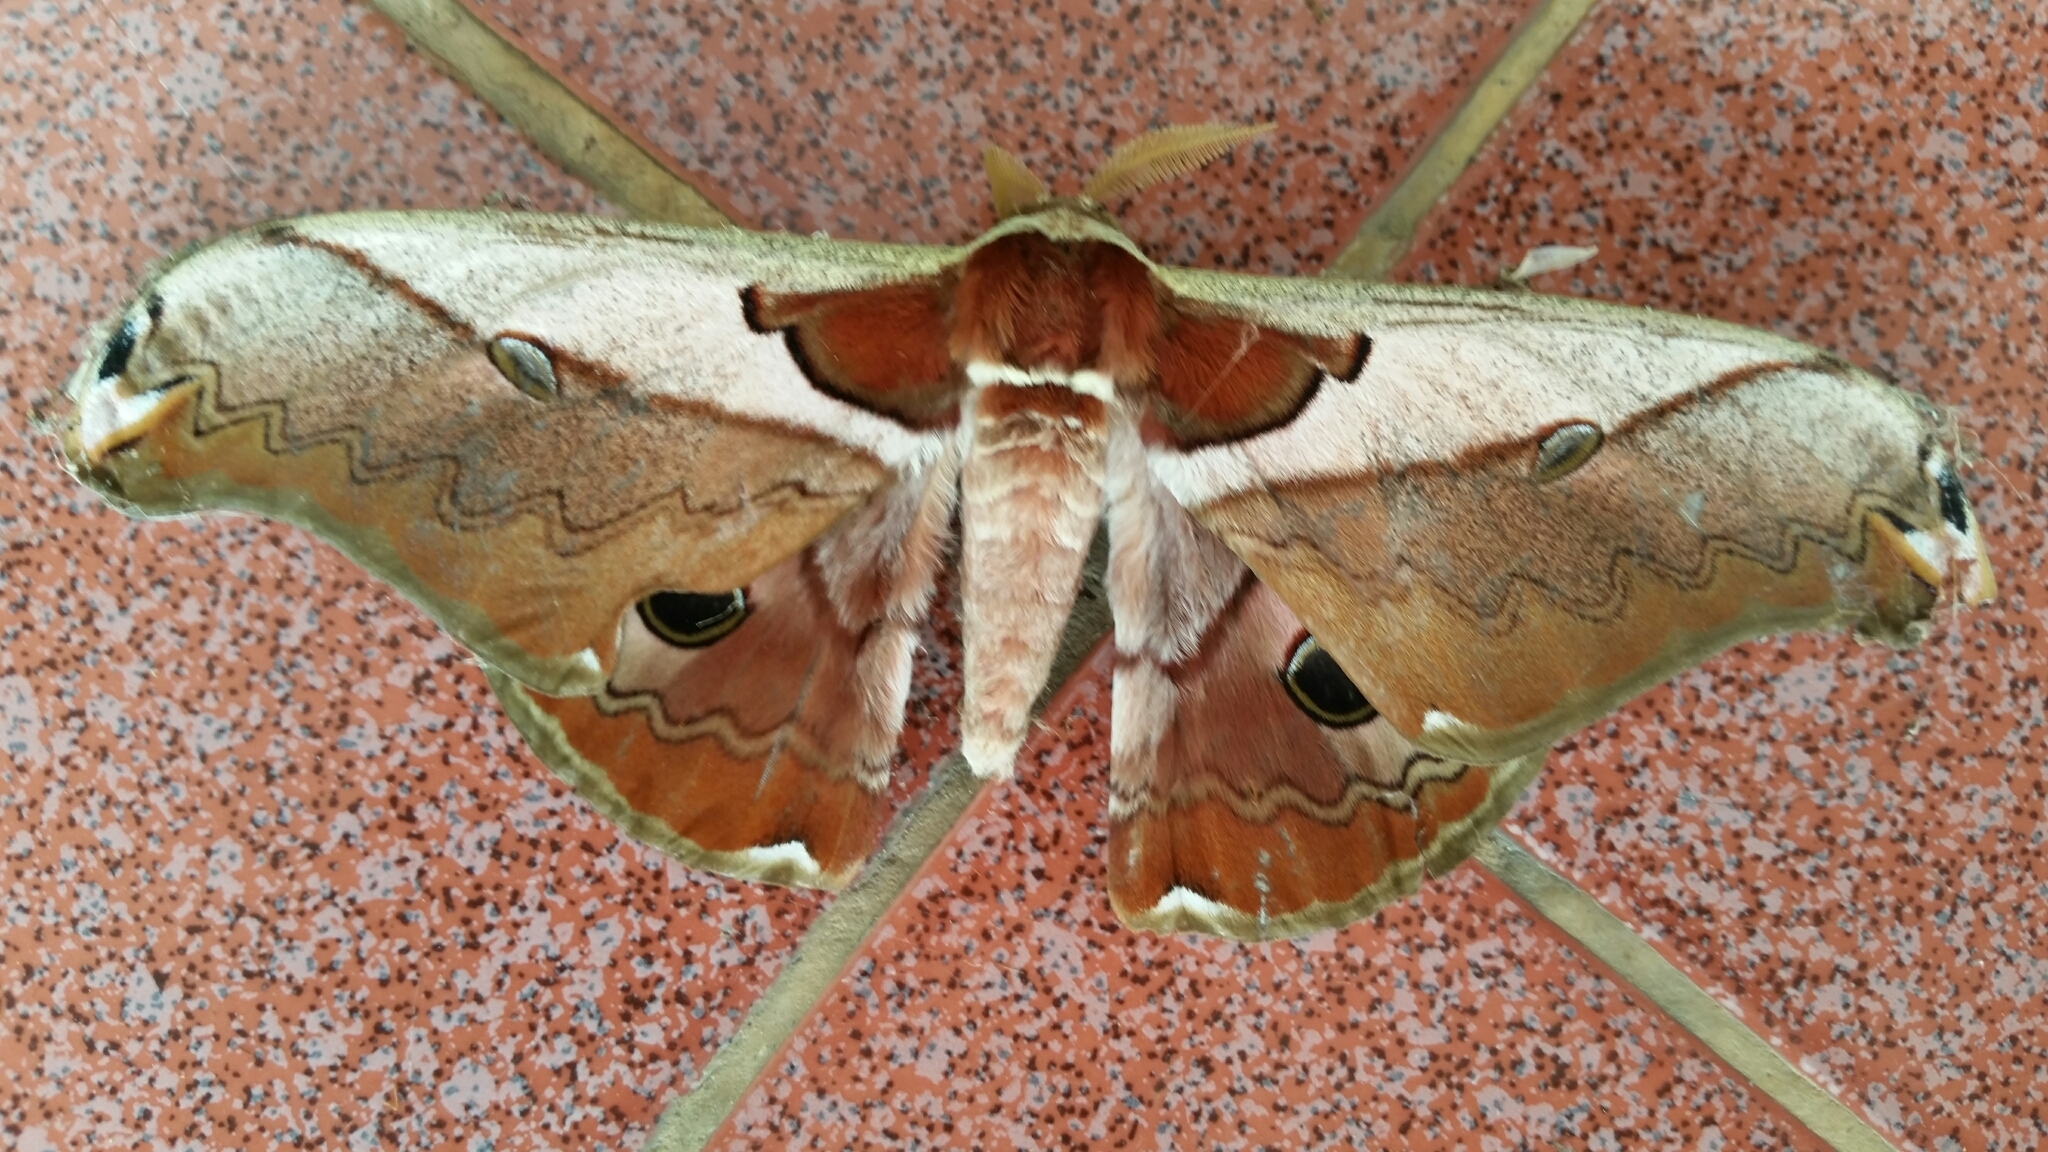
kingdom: Animalia
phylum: Arthropoda
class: Insecta
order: Lepidoptera
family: Saturniidae
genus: Saturnia
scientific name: Saturnia simla
